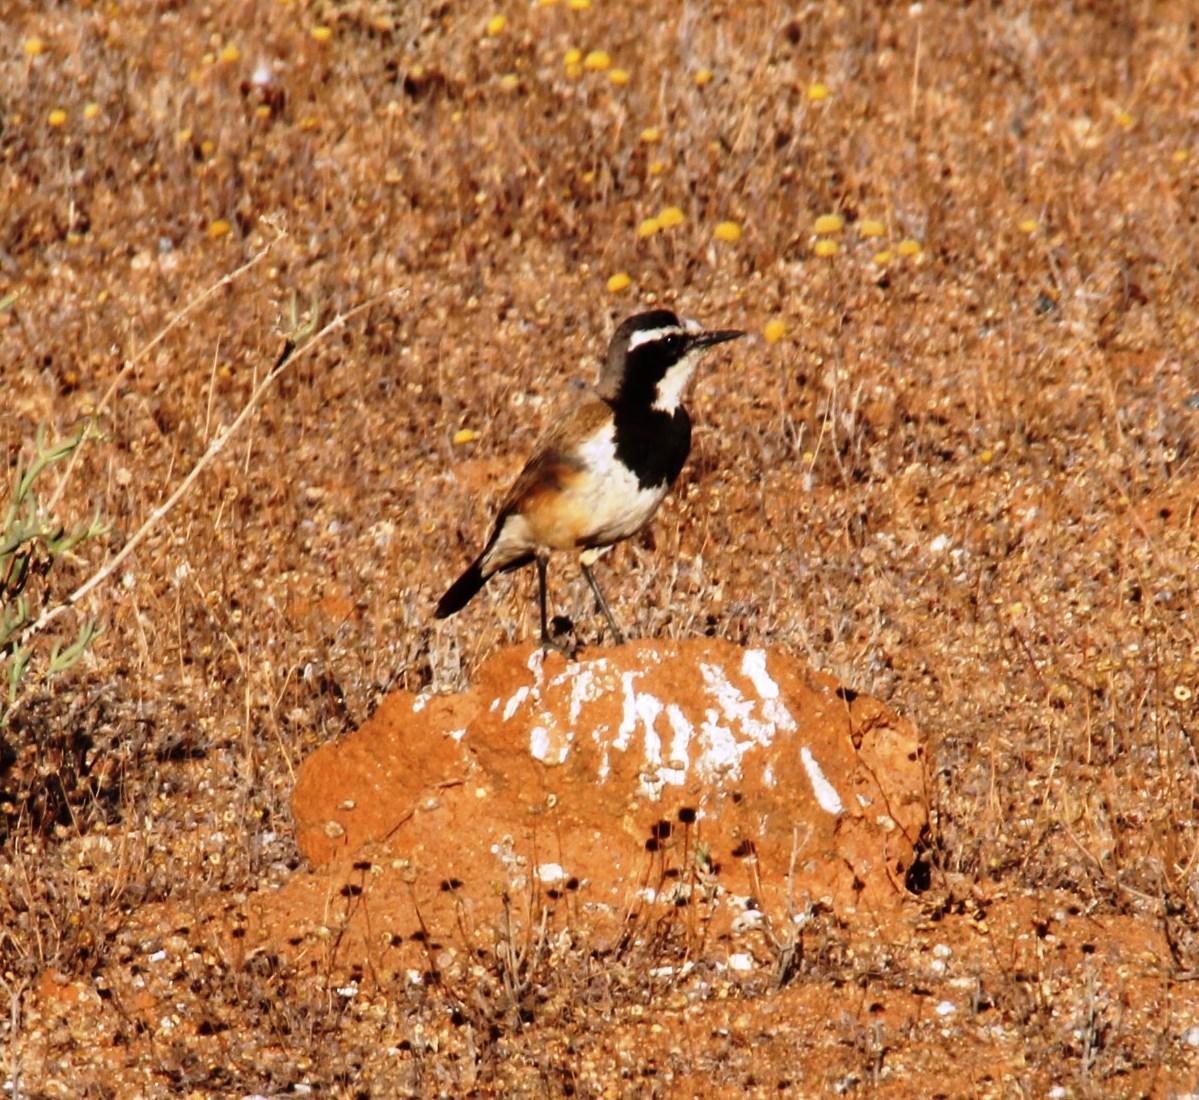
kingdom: Animalia
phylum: Chordata
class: Aves
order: Passeriformes
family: Muscicapidae
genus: Oenanthe
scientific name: Oenanthe pileata
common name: Capped wheatear
